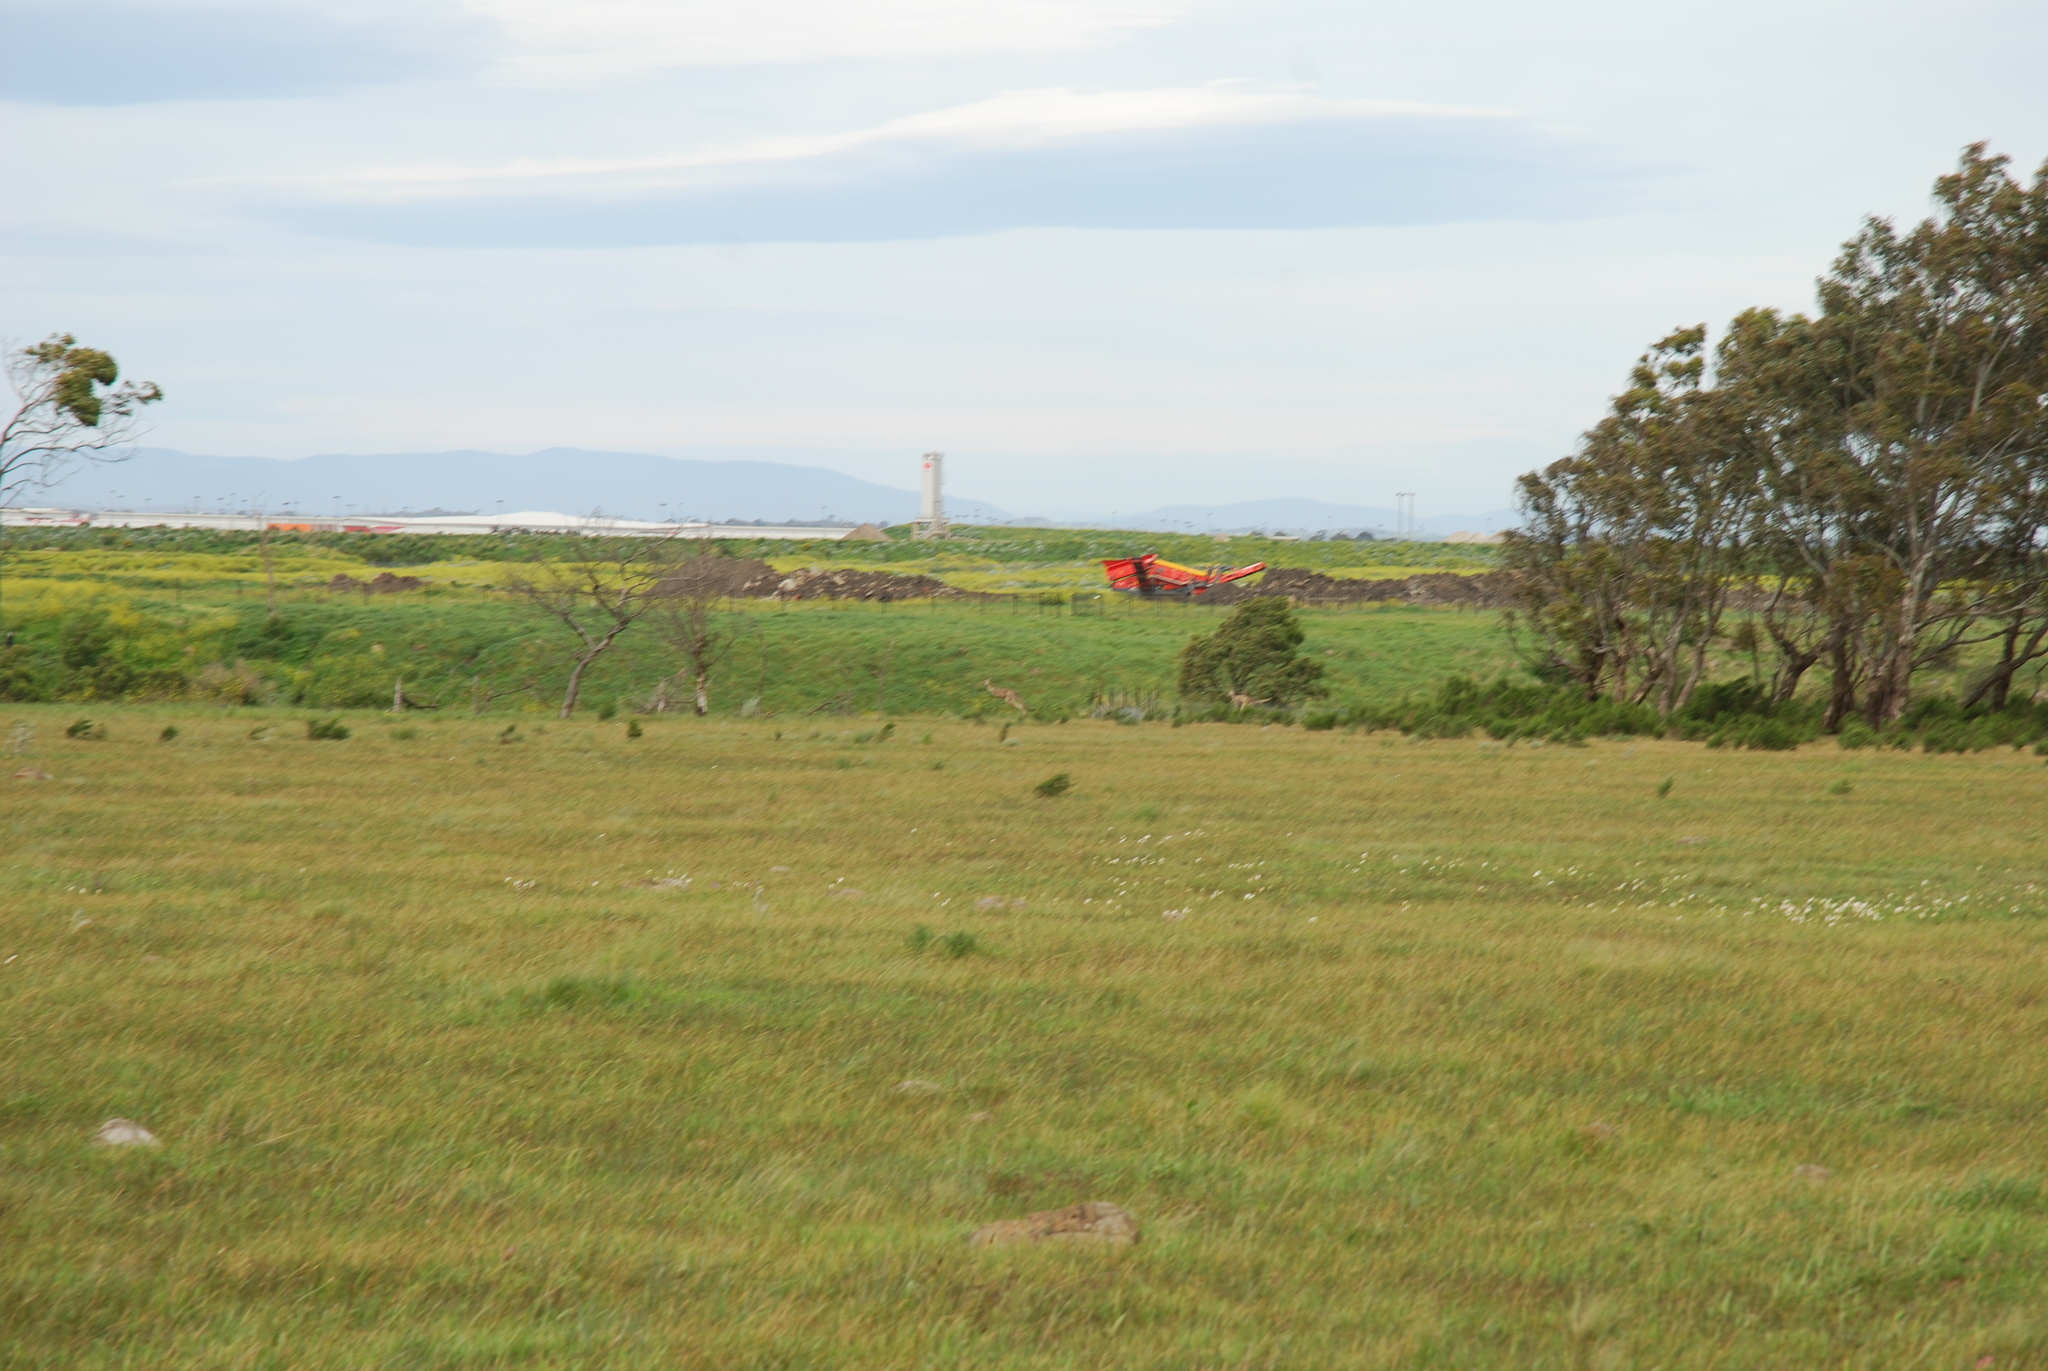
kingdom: Animalia
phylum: Chordata
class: Mammalia
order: Diprotodontia
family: Macropodidae
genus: Macropus
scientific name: Macropus giganteus
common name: Eastern grey kangaroo
